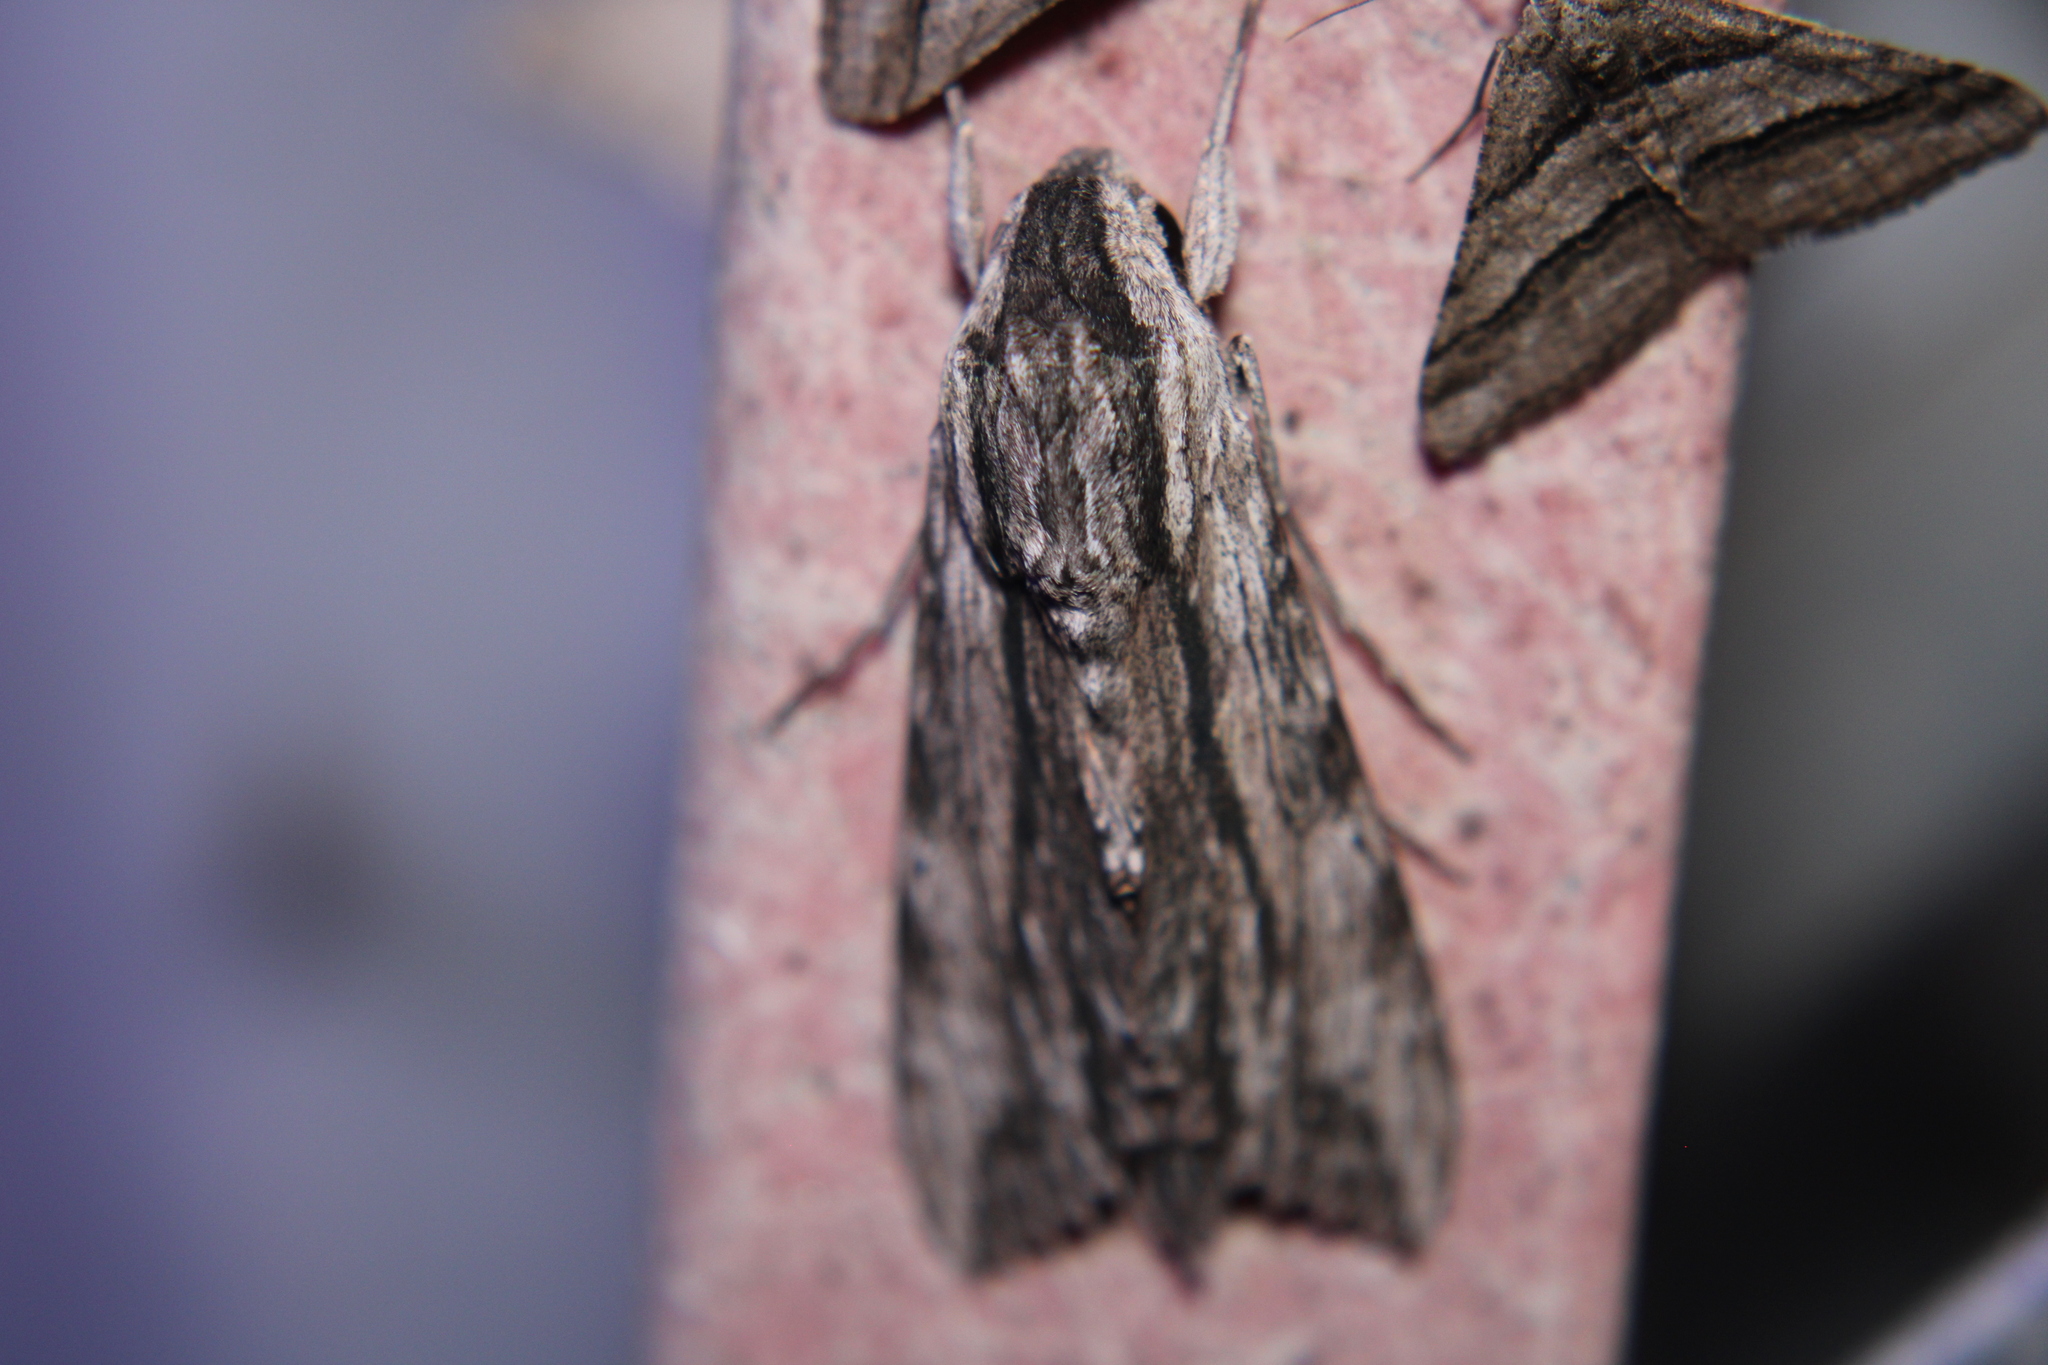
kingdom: Animalia
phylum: Arthropoda
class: Insecta
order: Lepidoptera
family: Sphingidae
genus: Erinnyis
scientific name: Erinnyis obscura
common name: Obscure sphinx
